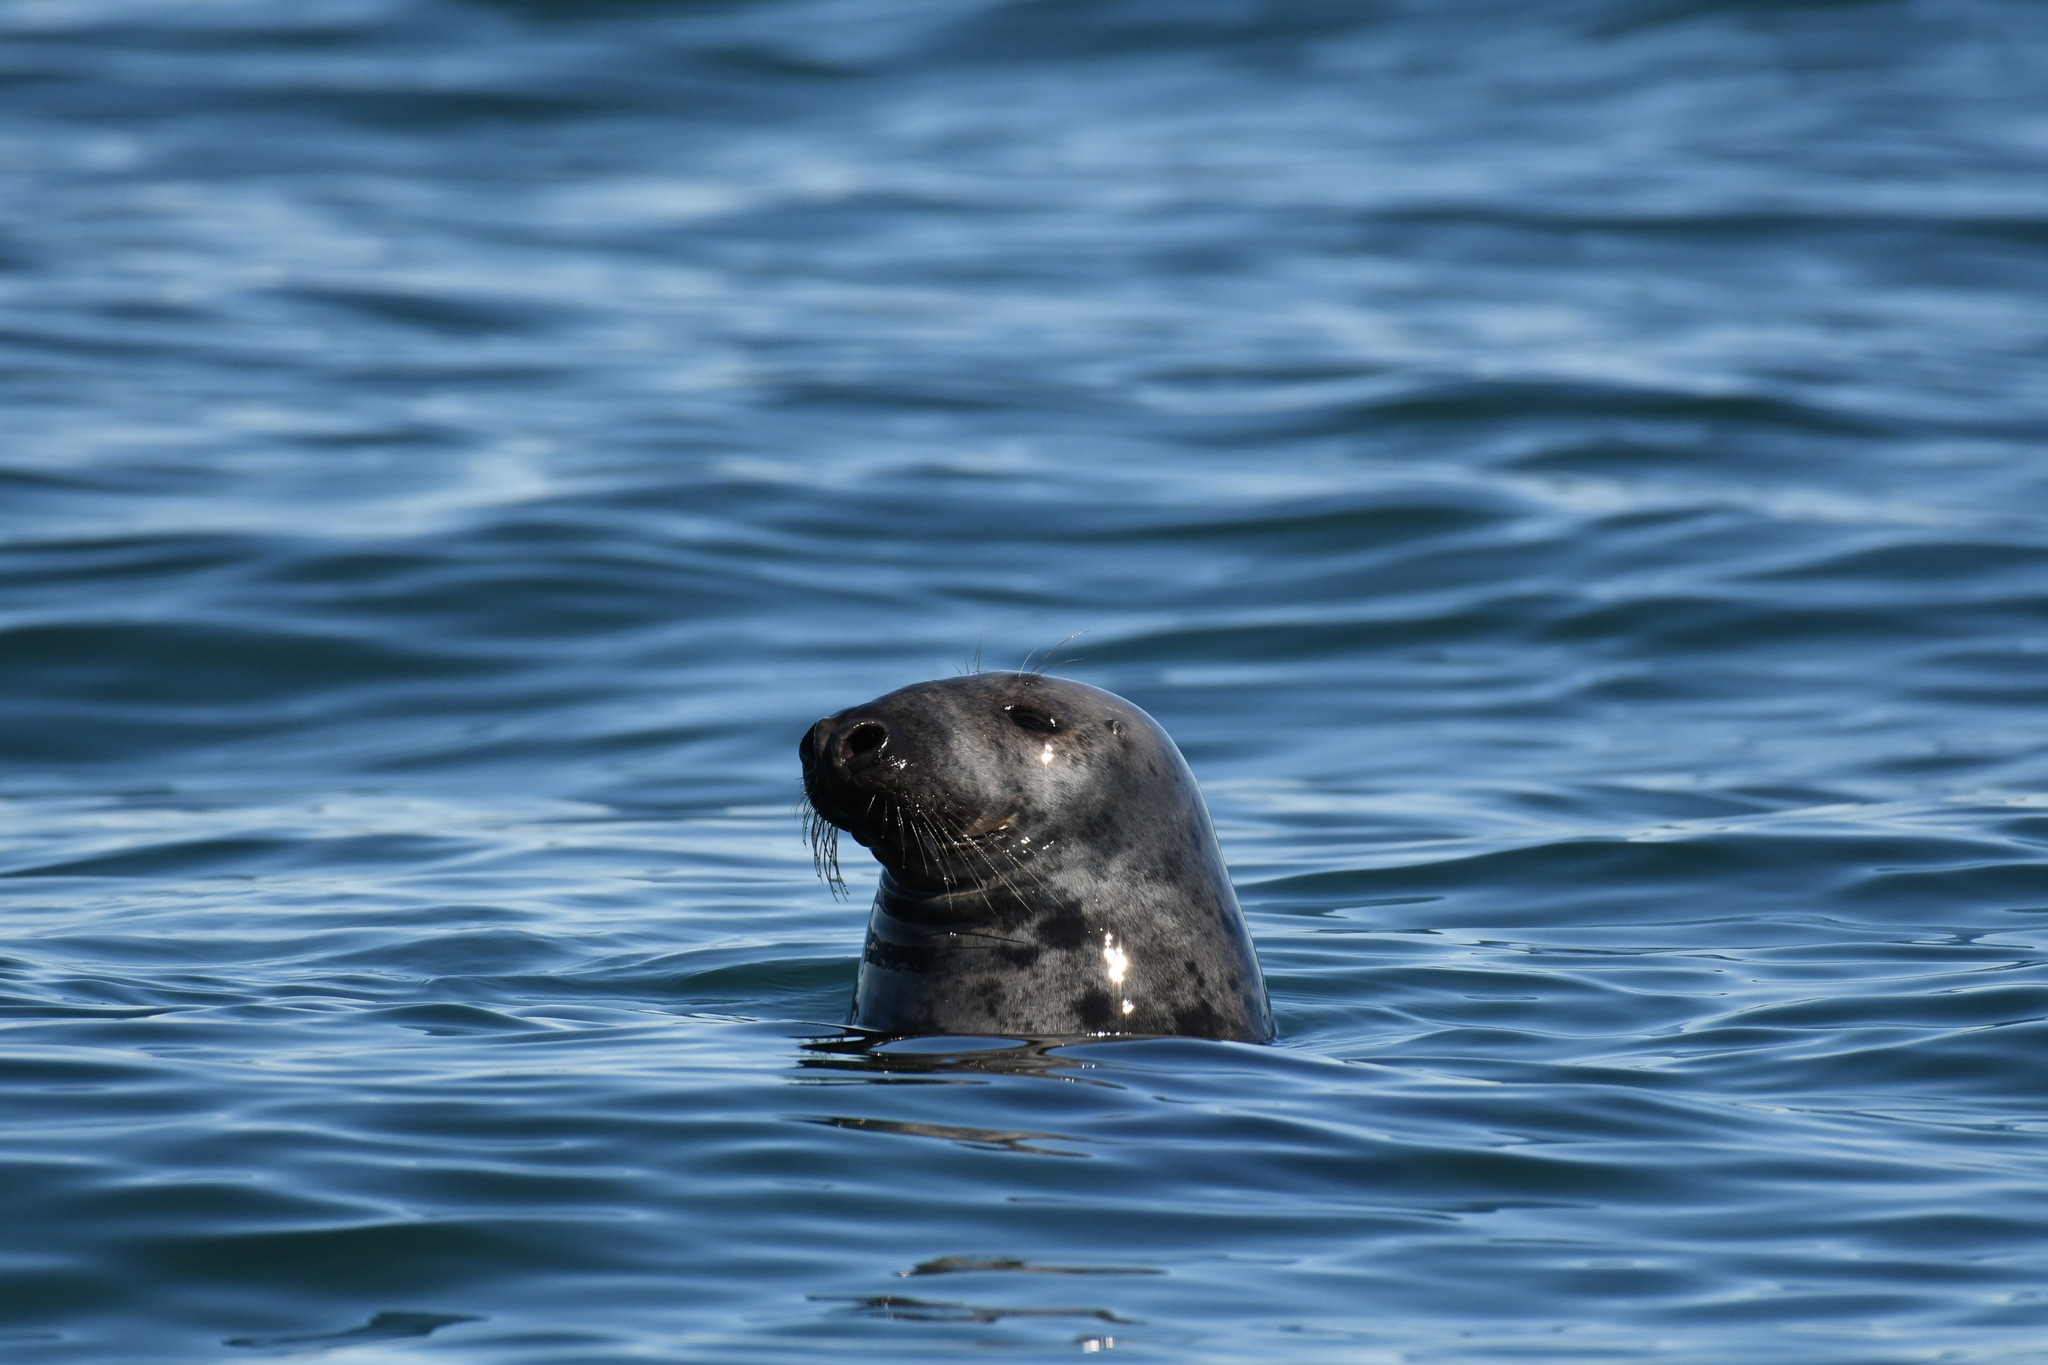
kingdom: Animalia
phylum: Chordata
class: Mammalia
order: Carnivora
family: Phocidae
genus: Halichoerus
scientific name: Halichoerus grypus
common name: Grey seal
